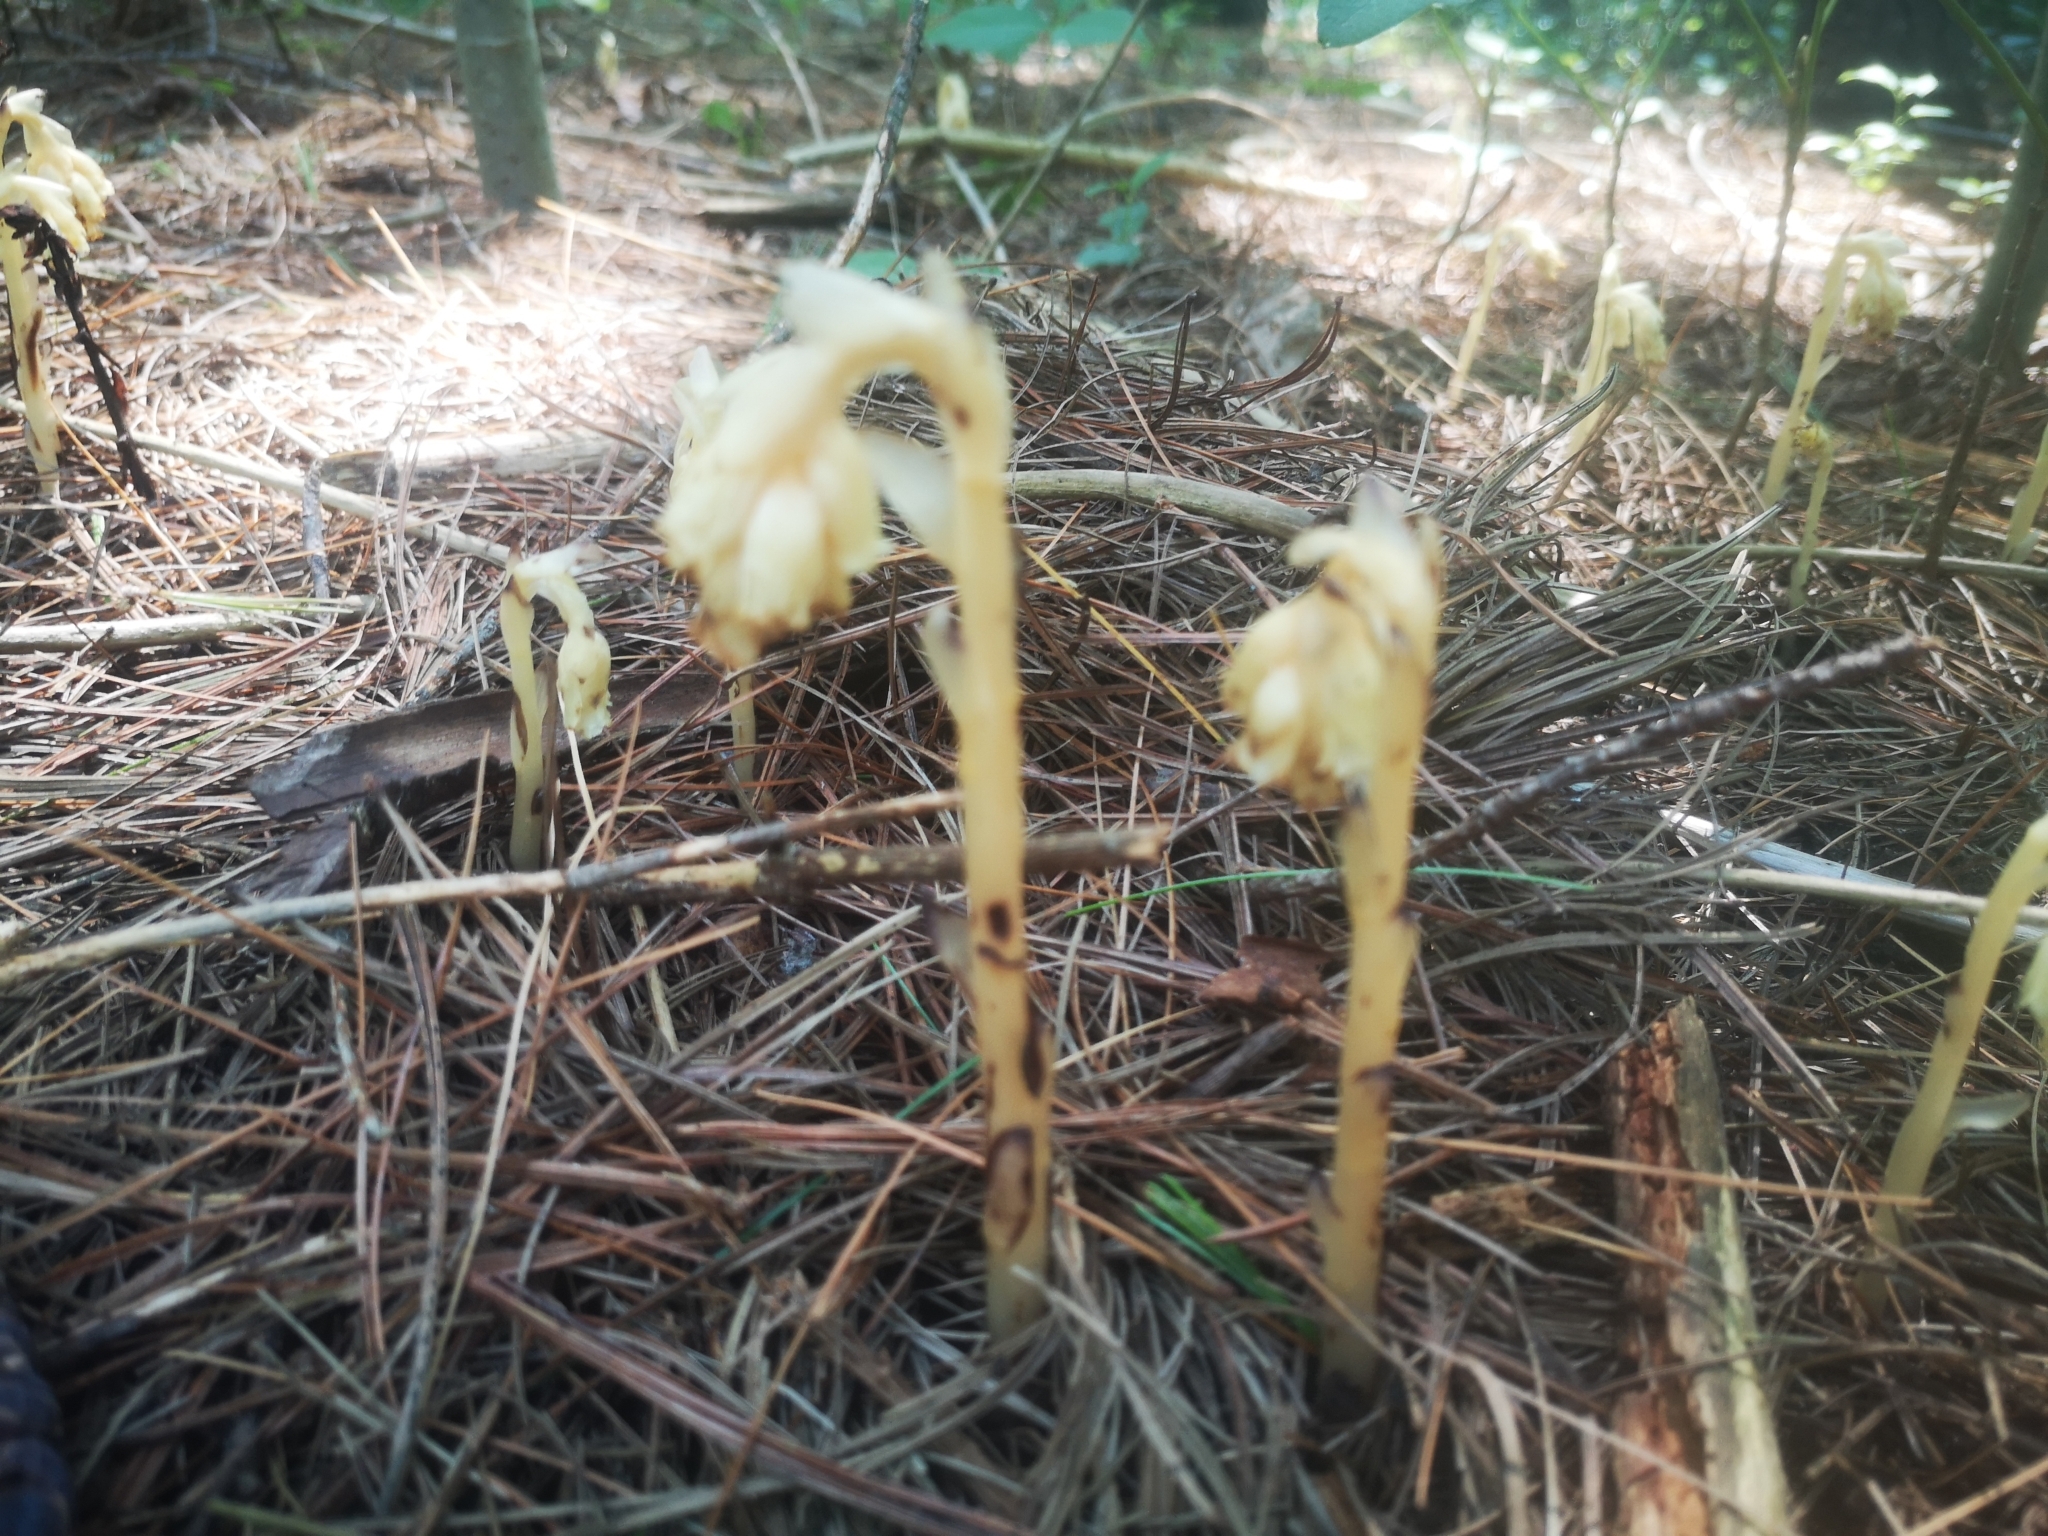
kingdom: Plantae
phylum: Tracheophyta
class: Magnoliopsida
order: Ericales
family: Ericaceae
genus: Hypopitys
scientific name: Hypopitys monotropa
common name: Yellow bird's-nest
